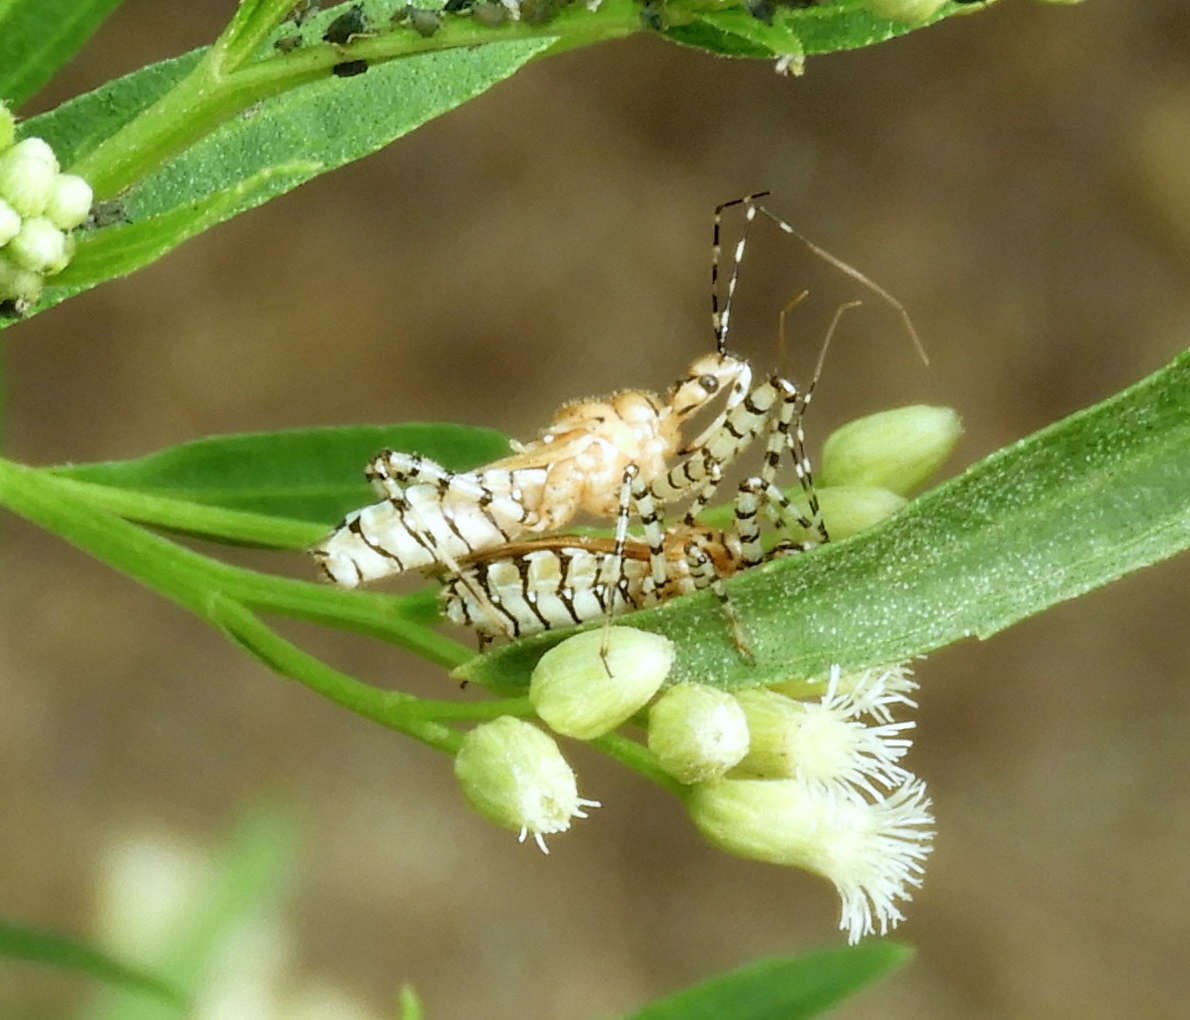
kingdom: Animalia
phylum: Arthropoda
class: Insecta
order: Hemiptera
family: Reduviidae
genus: Pselliopus
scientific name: Pselliopus
